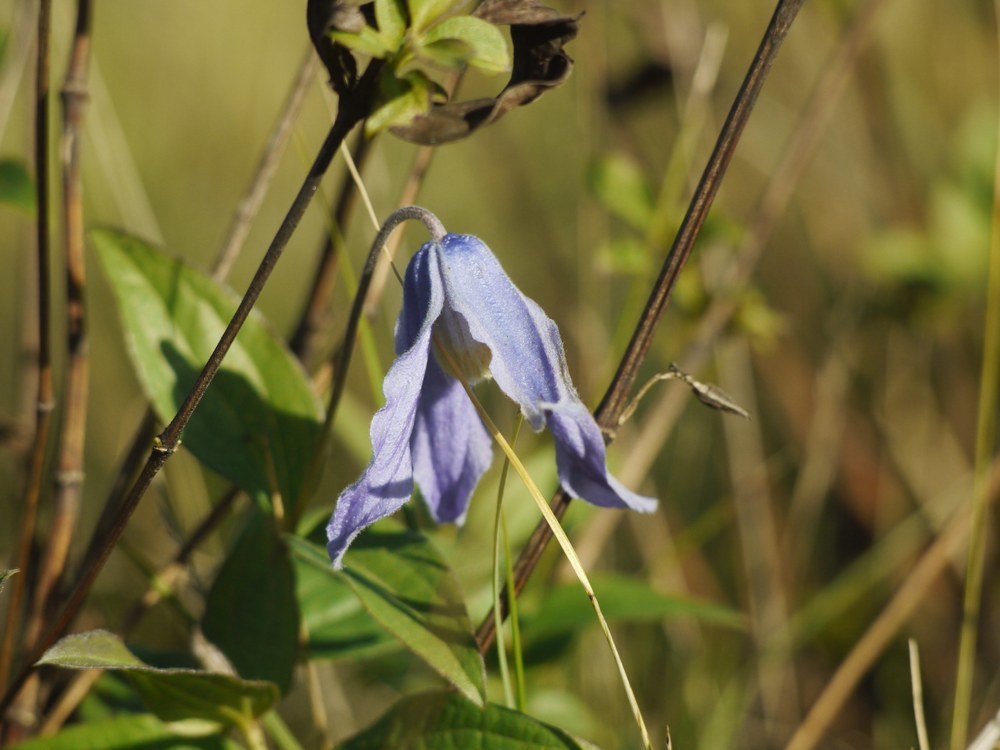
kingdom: Plantae
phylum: Tracheophyta
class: Magnoliopsida
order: Ranunculales
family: Ranunculaceae
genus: Clematis
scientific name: Clematis integrifolia
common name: Solitary clematis
